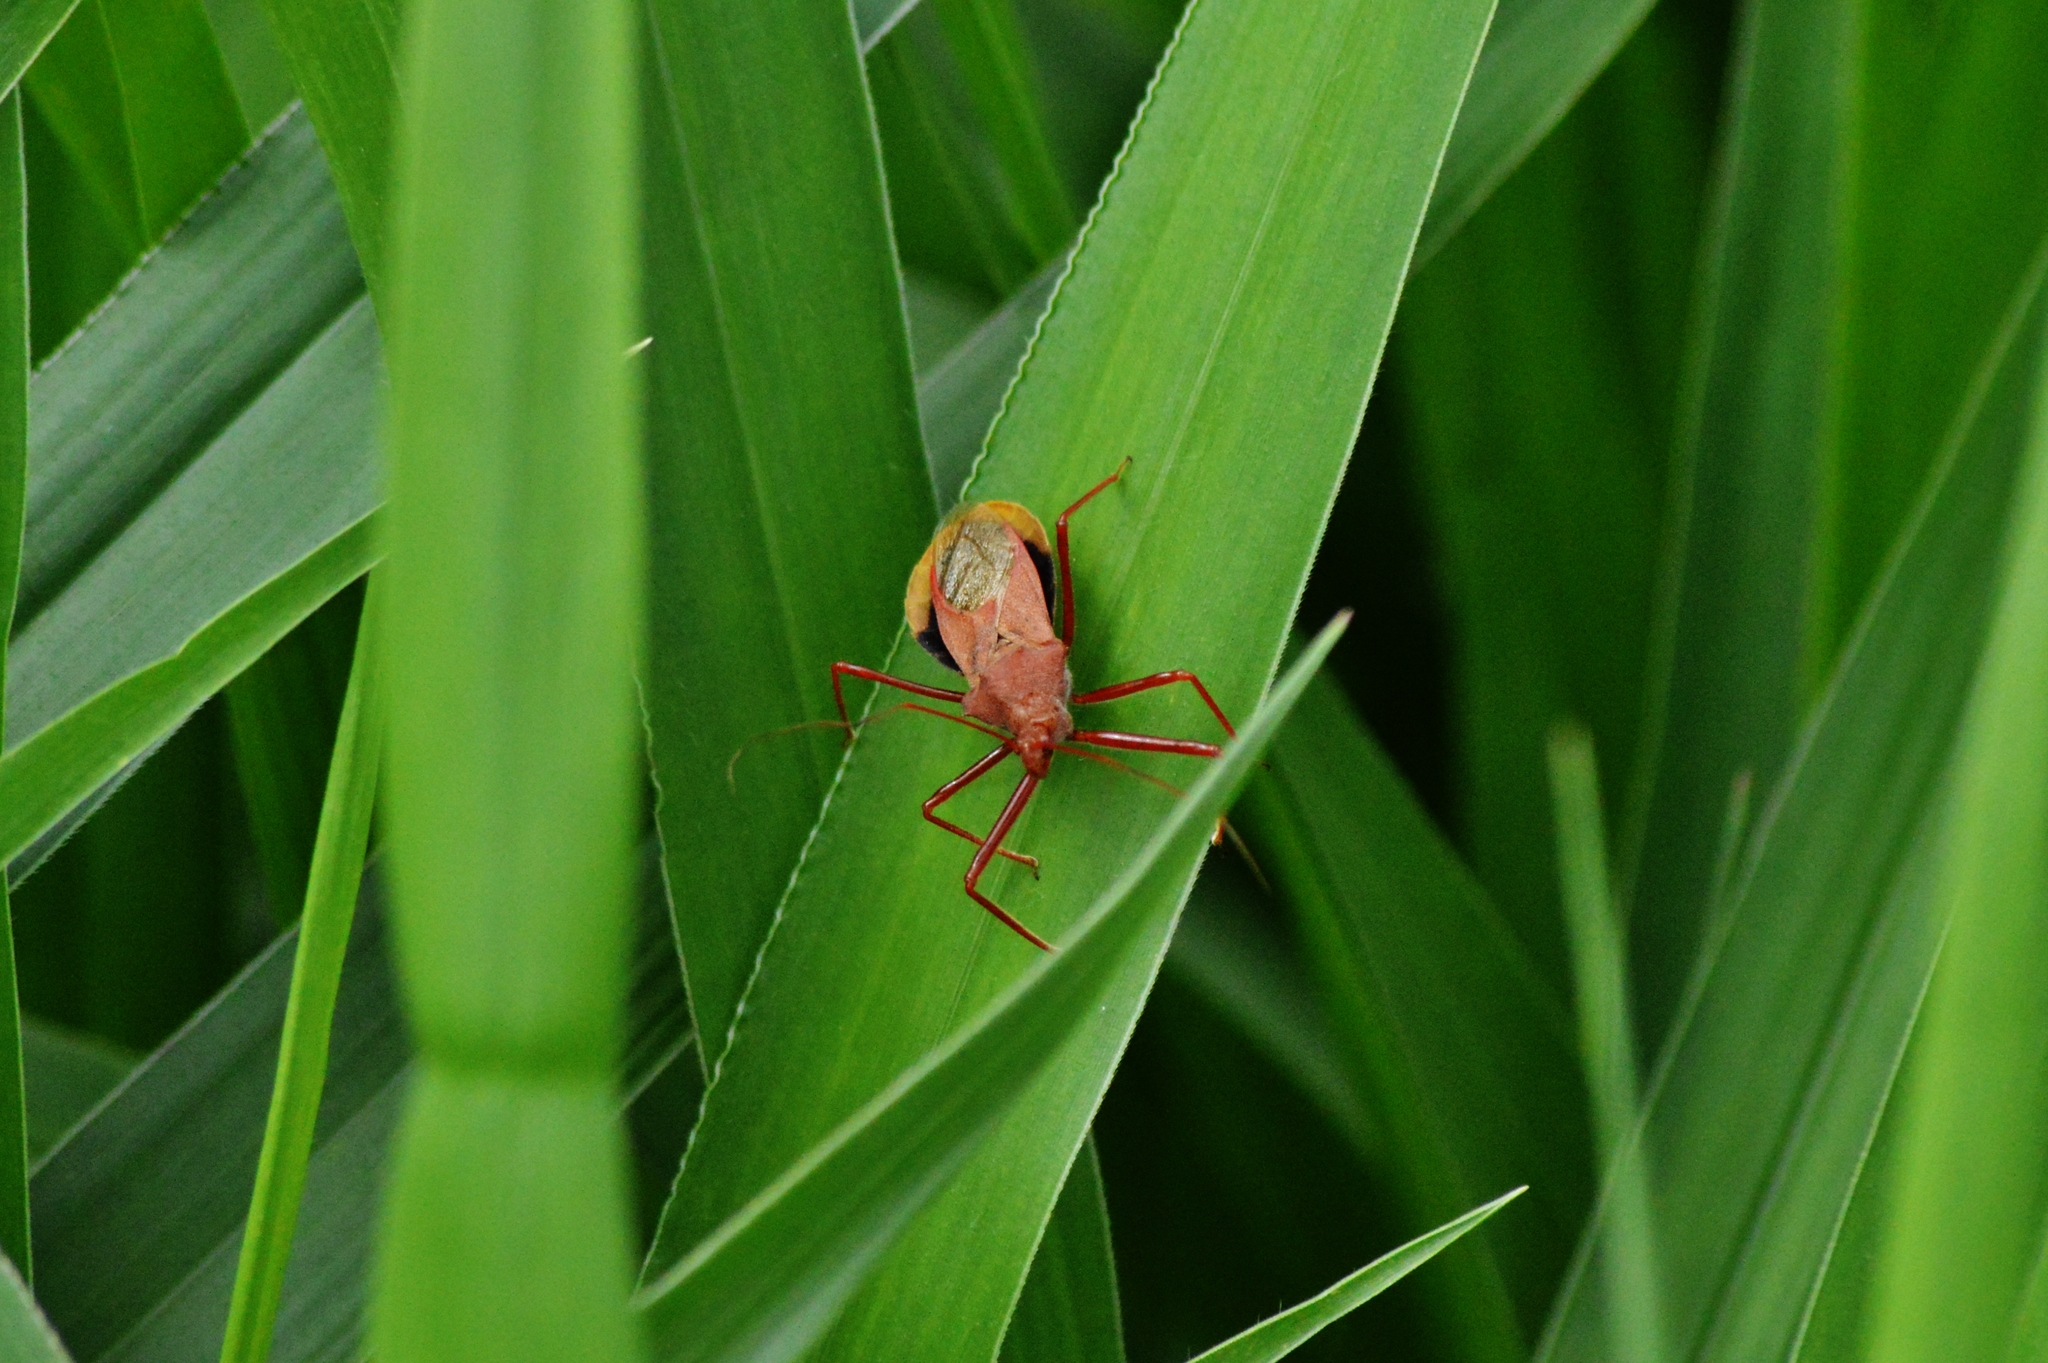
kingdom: Animalia
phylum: Arthropoda
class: Insecta
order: Hemiptera
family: Reduviidae
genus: Montina
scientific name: Montina confusa
